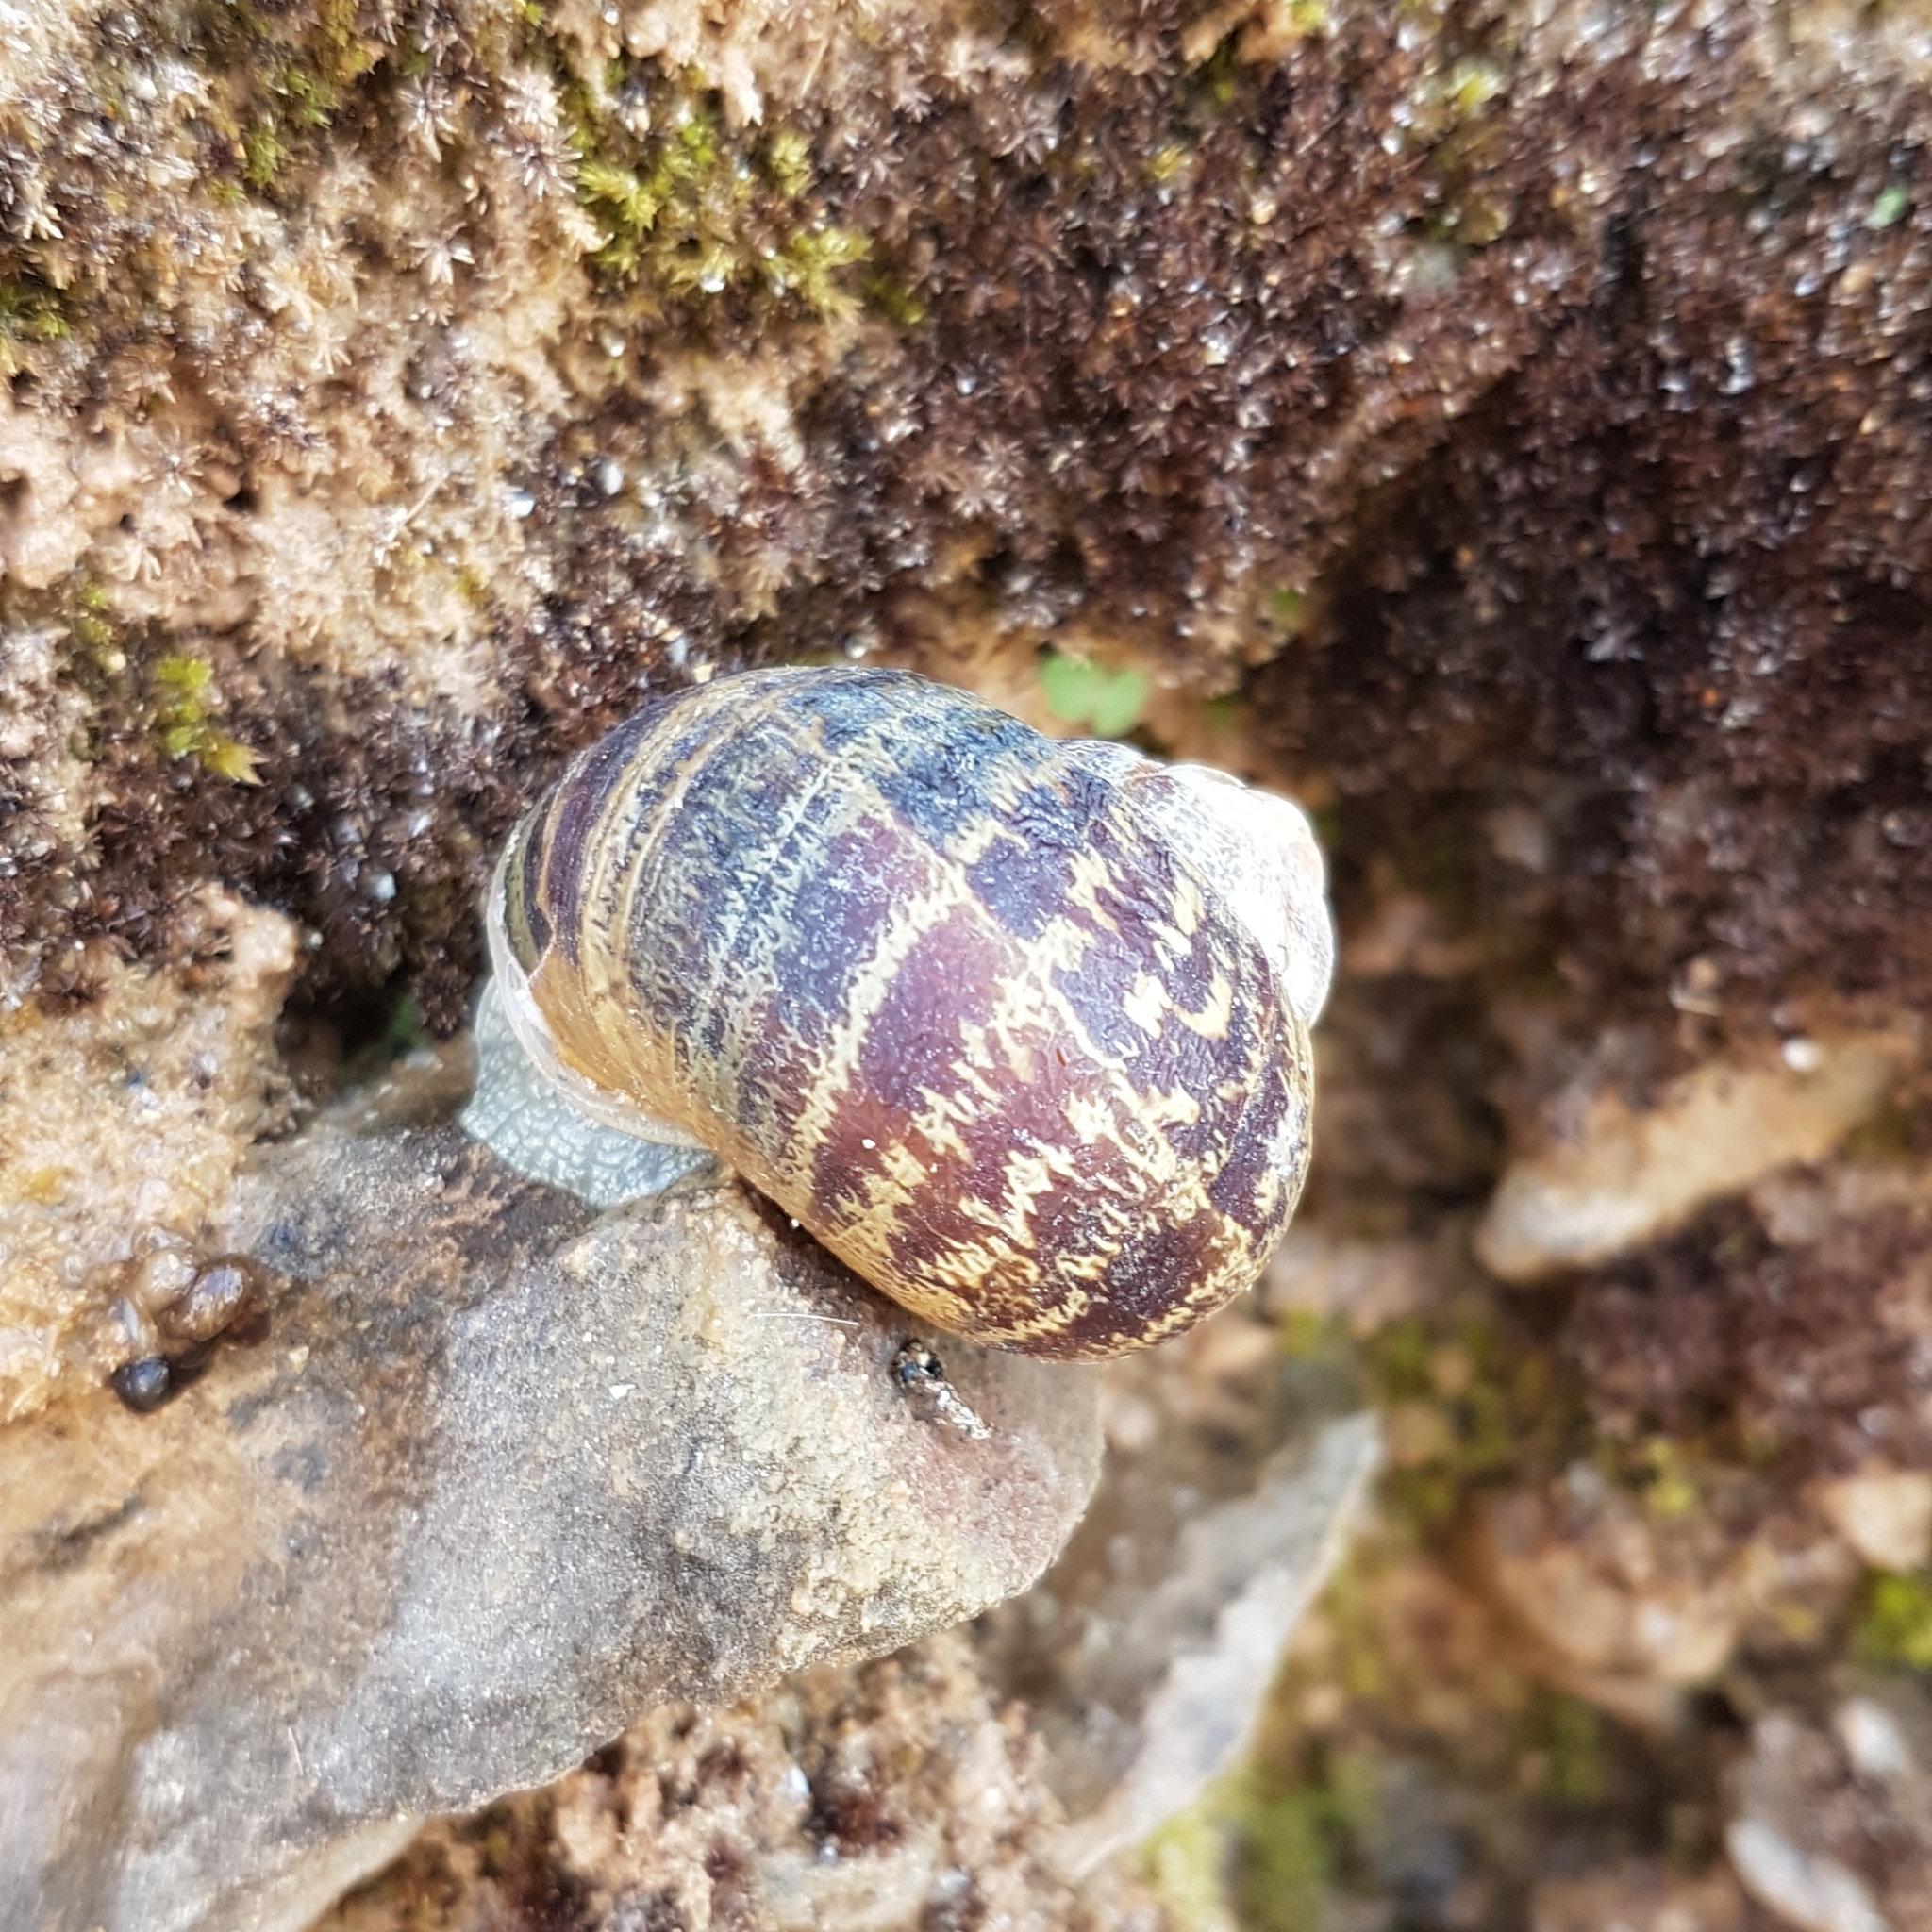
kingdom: Animalia
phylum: Mollusca
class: Gastropoda
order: Stylommatophora
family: Helicidae
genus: Cornu
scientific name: Cornu aspersum
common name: Brown garden snail
